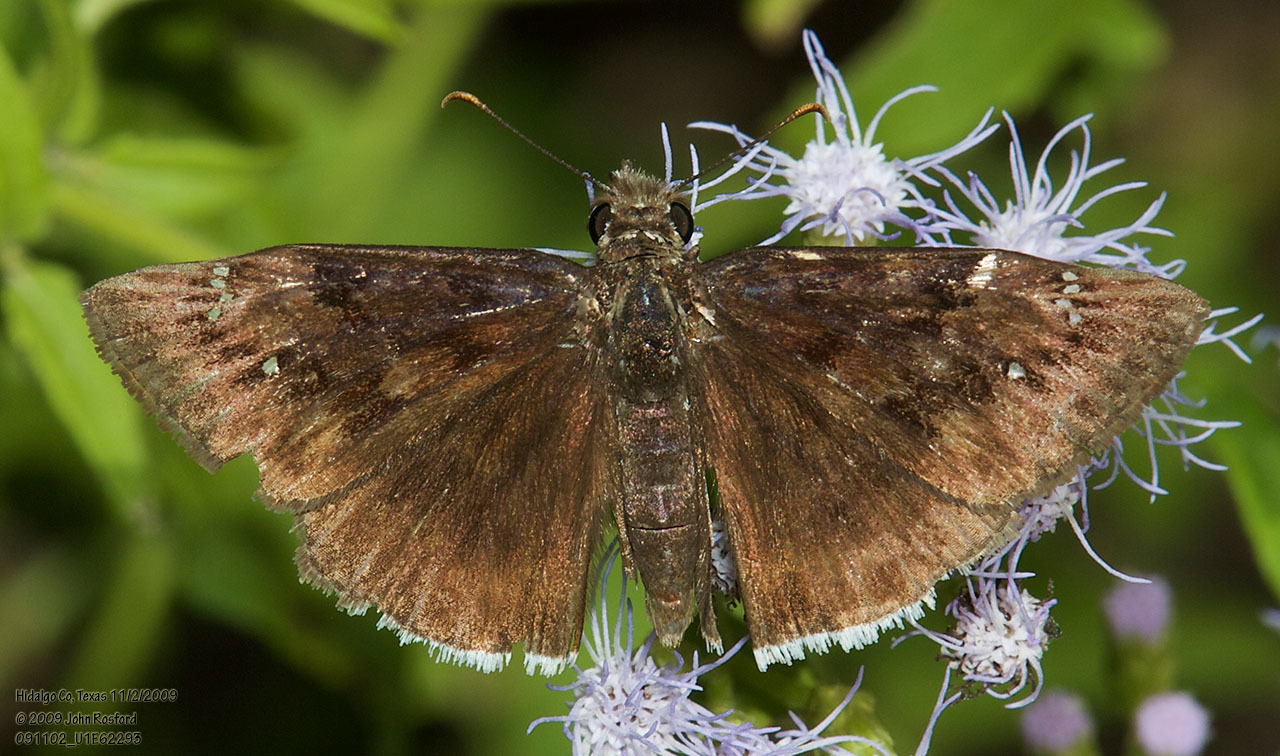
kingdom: Animalia
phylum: Arthropoda
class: Insecta
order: Lepidoptera
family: Hesperiidae
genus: Erynnis
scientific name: Erynnis tristis
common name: Mournful duskywing
